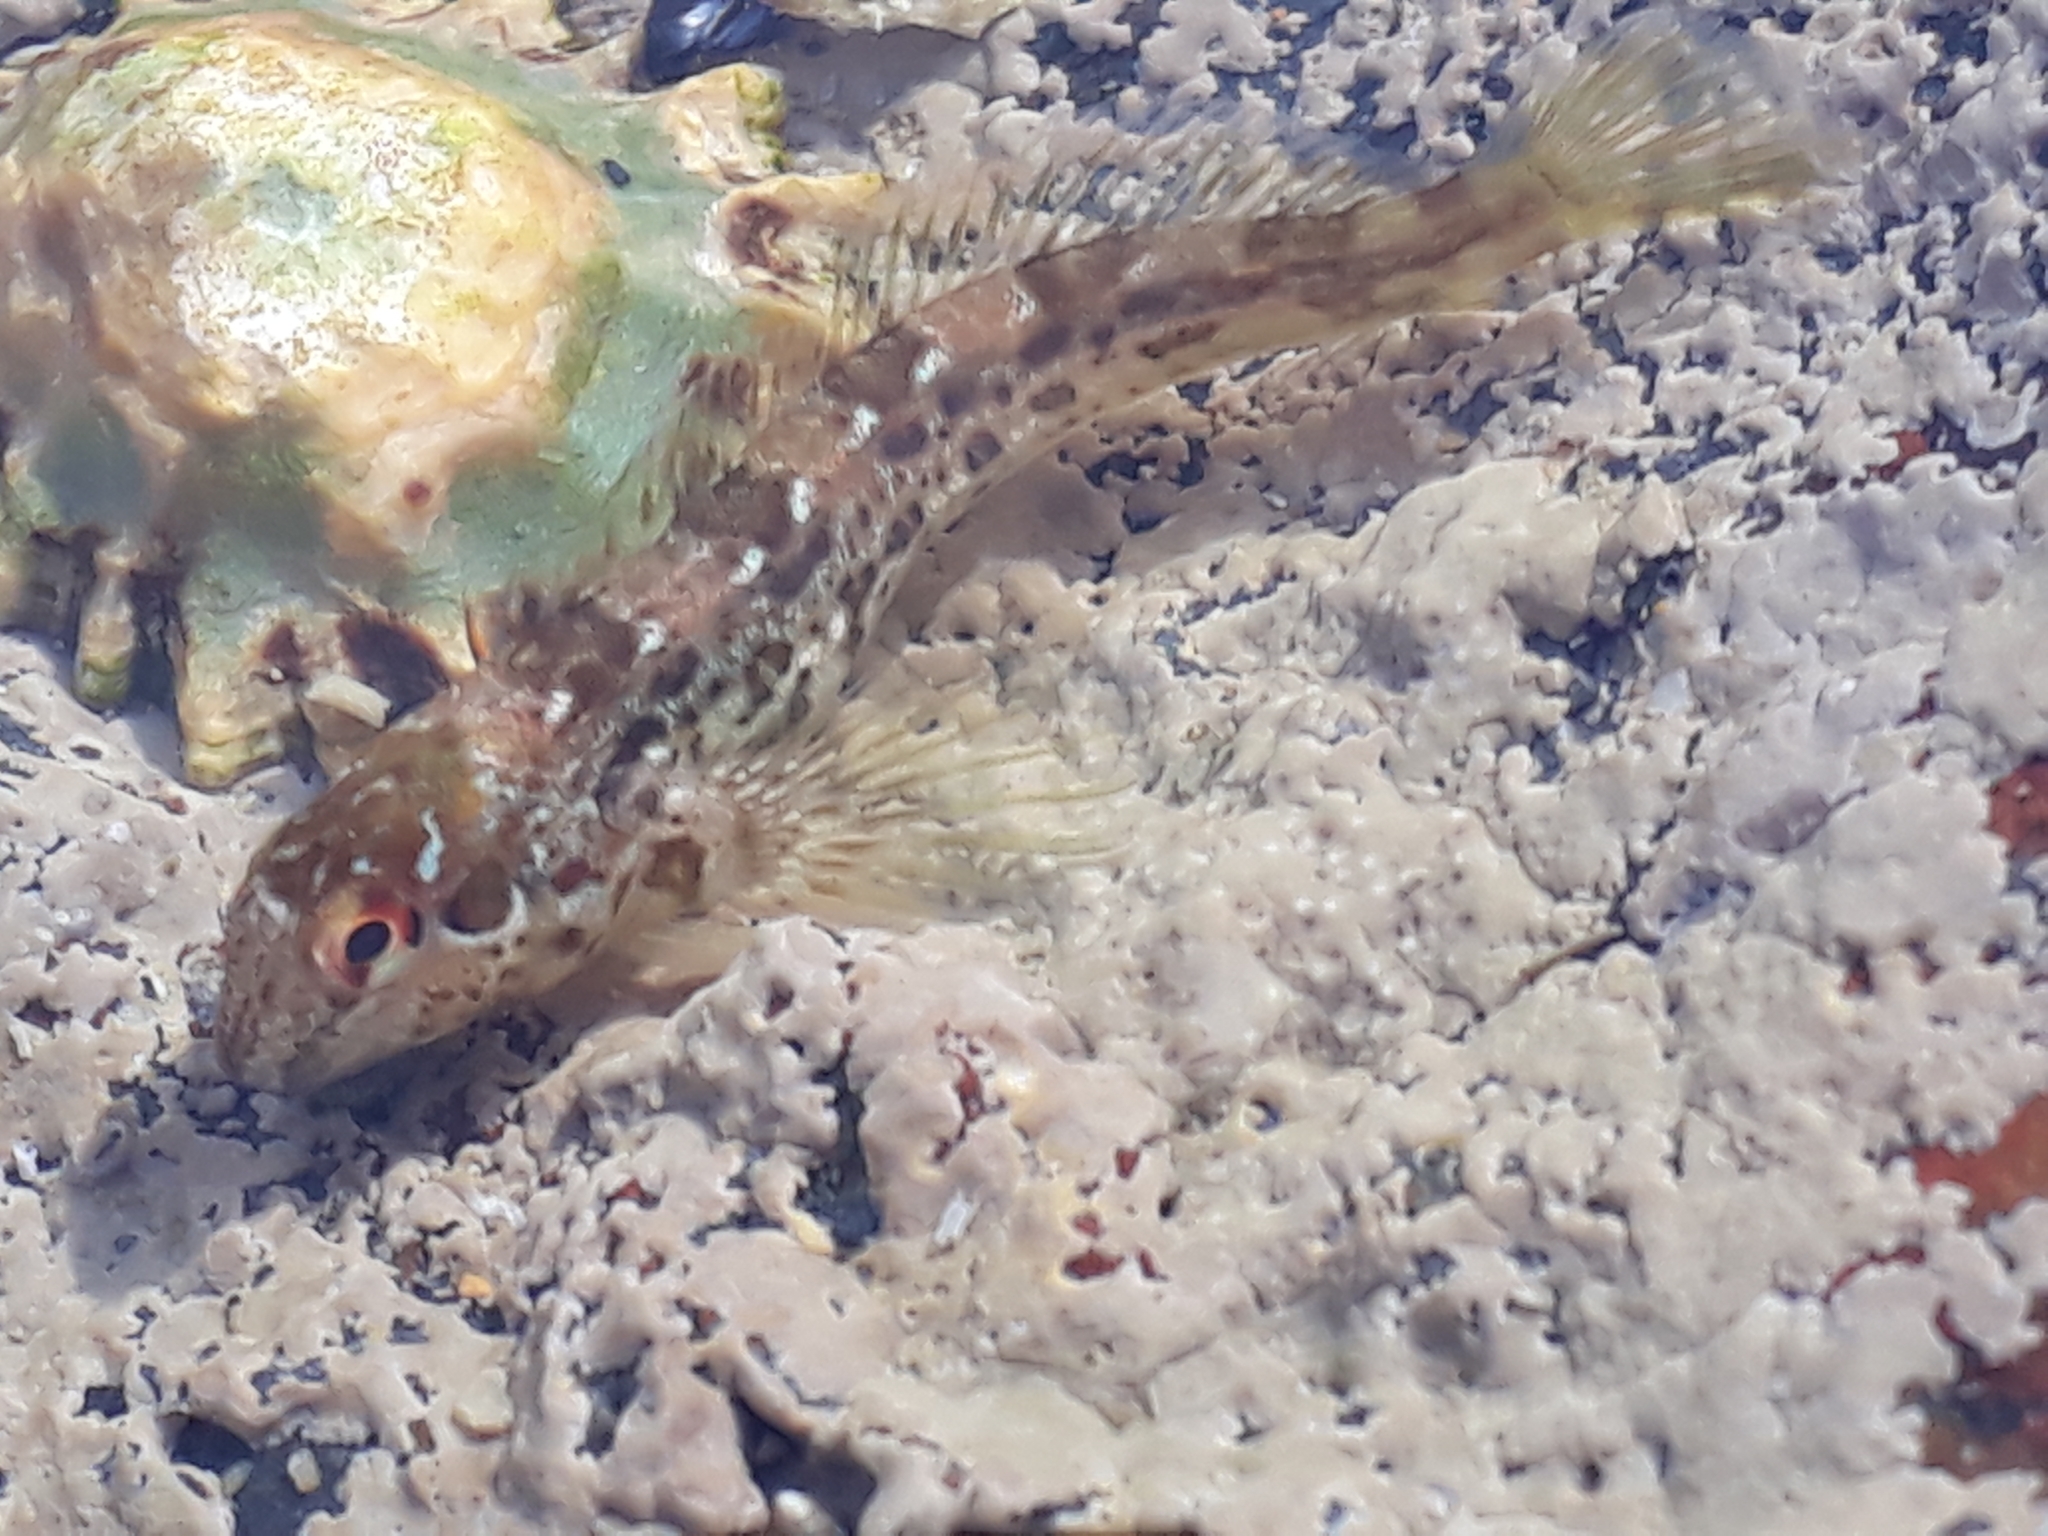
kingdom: Animalia
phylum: Chordata
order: Perciformes
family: Blenniidae
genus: Lipophrys
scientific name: Lipophrys pholis
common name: Shanny
